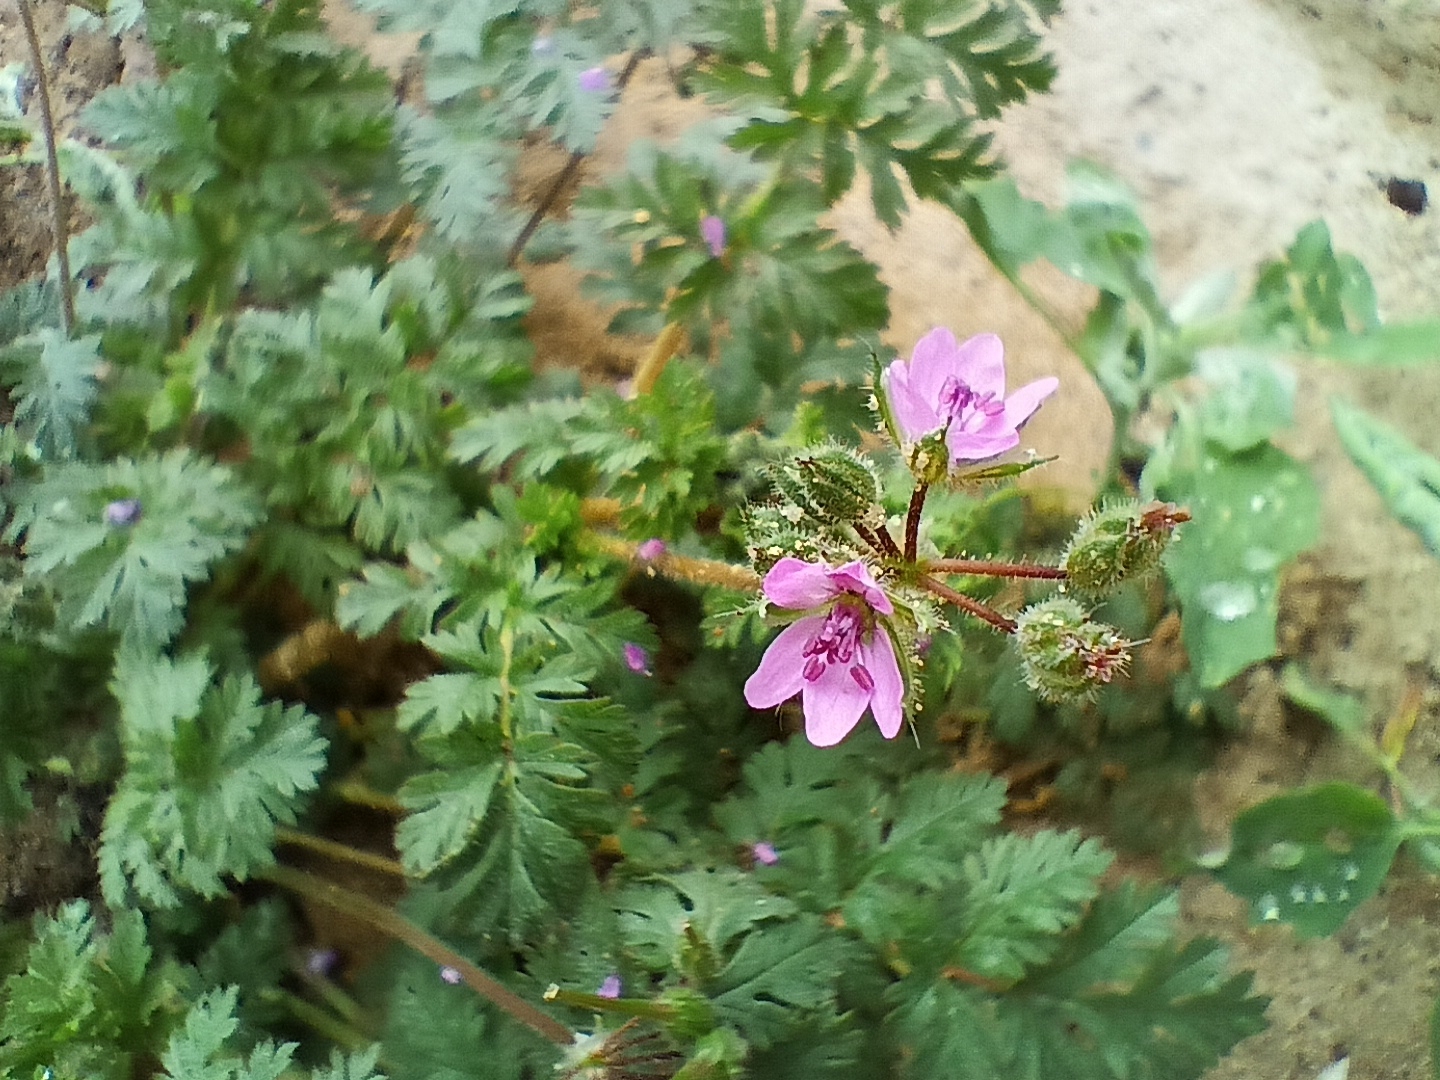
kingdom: Plantae
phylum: Tracheophyta
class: Magnoliopsida
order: Geraniales
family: Geraniaceae
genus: Erodium
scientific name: Erodium cicutarium
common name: Common stork's-bill
